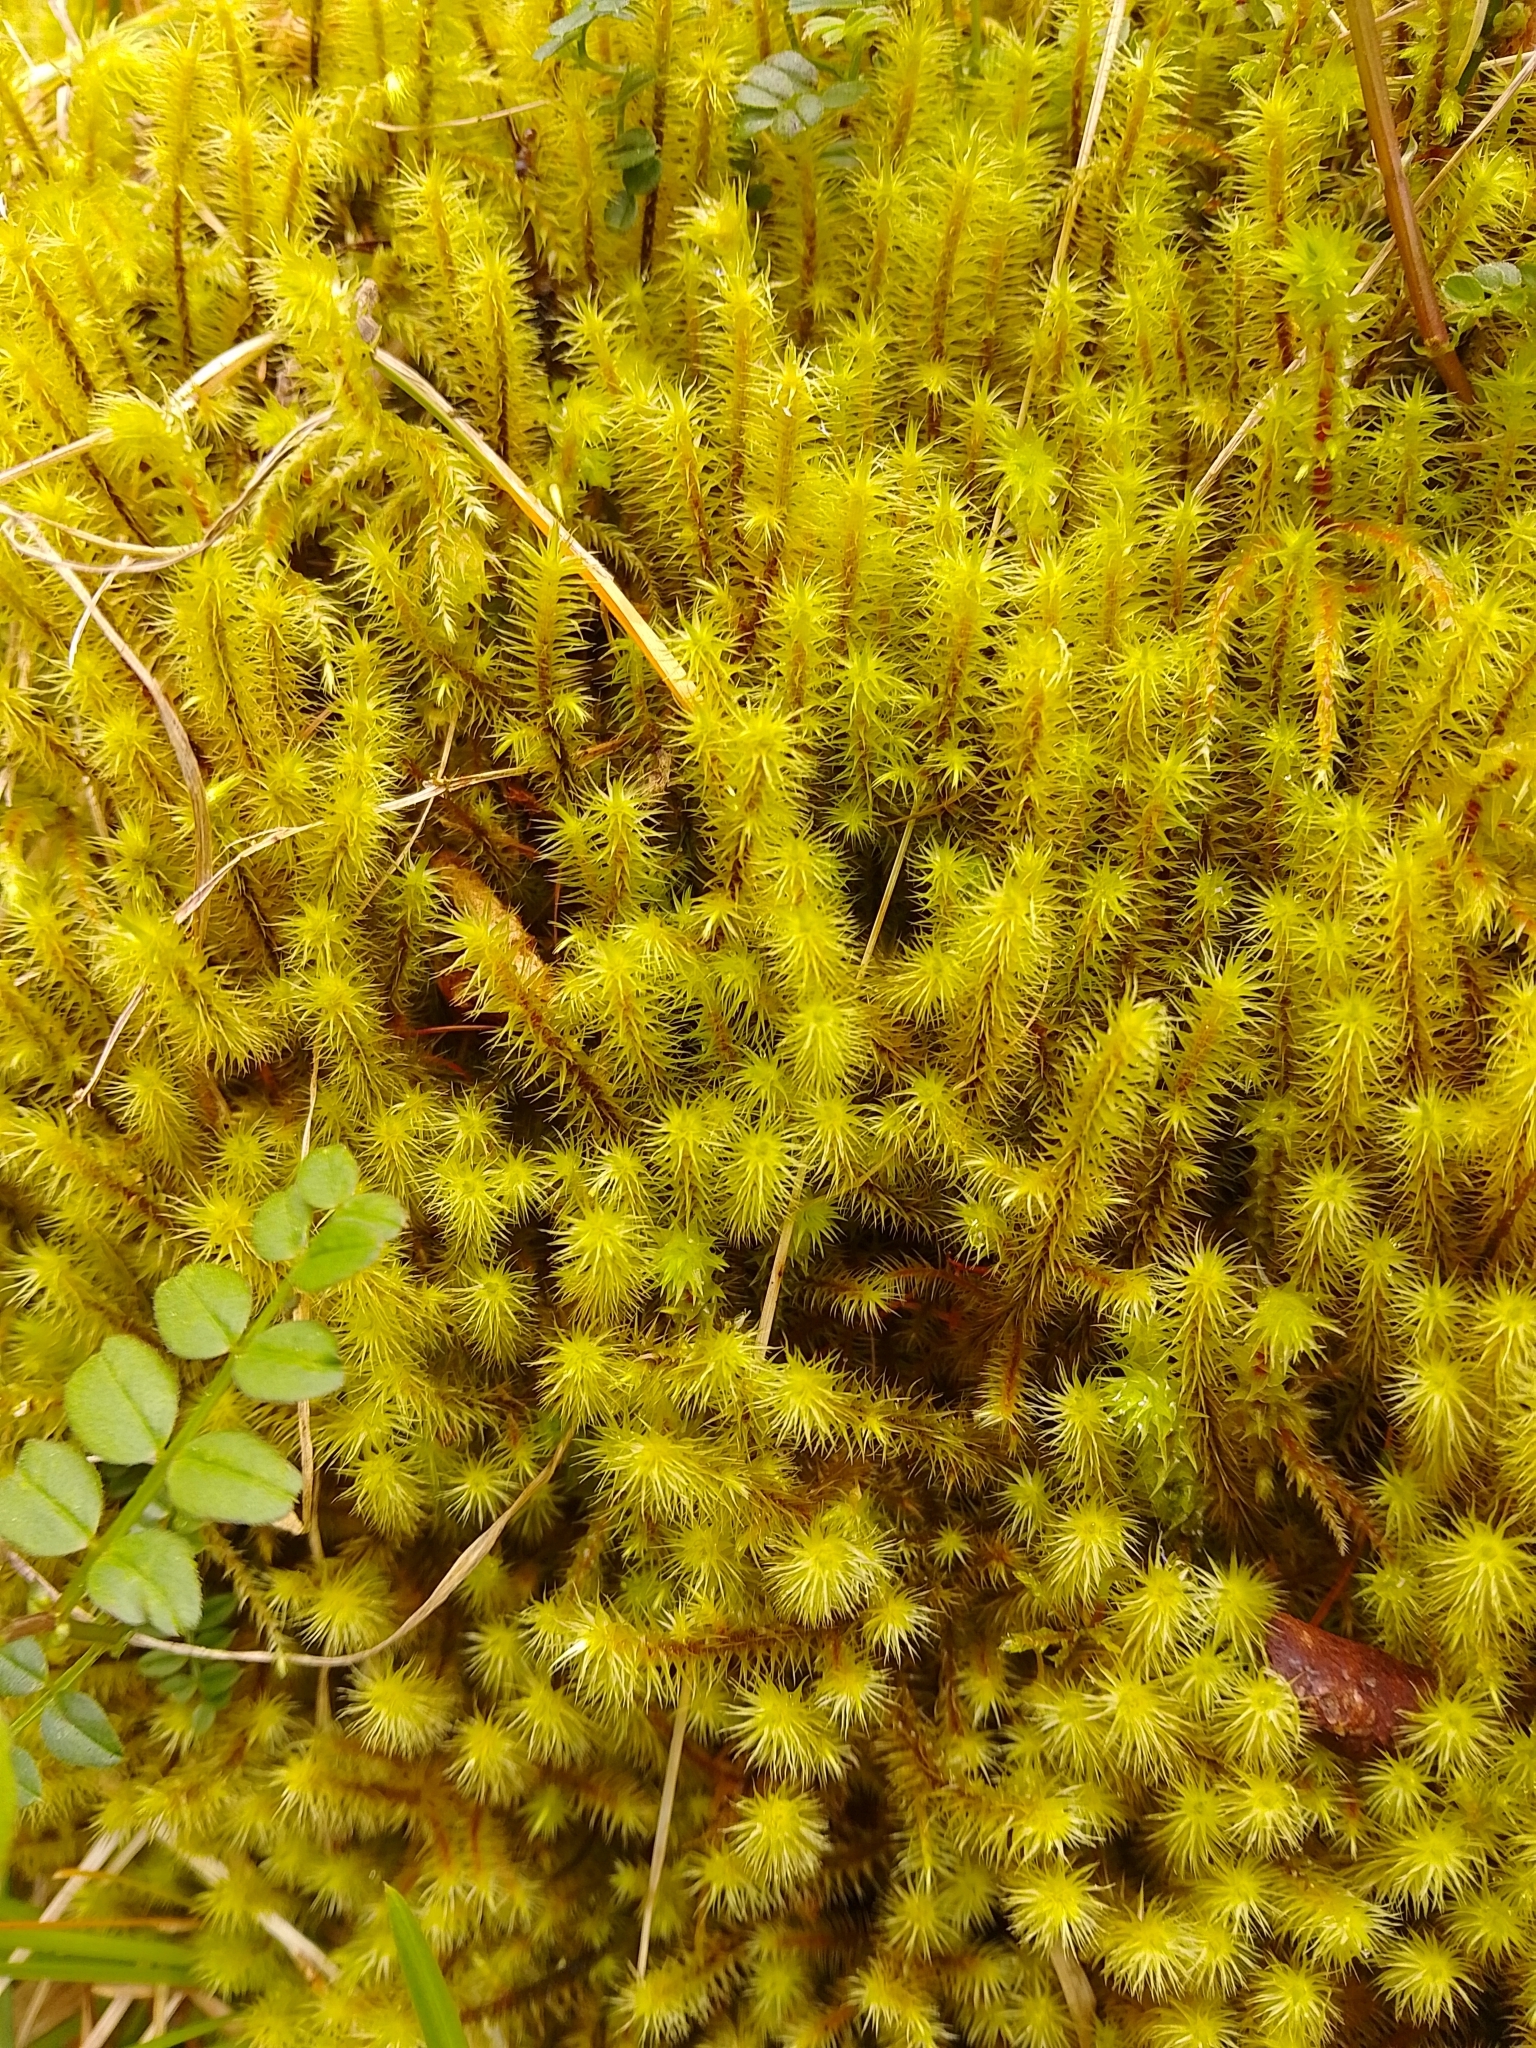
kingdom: Plantae
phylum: Bryophyta
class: Bryopsida
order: Bartramiales
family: Bartramiaceae
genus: Breutelia
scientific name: Breutelia chrysocoma
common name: Bottle-brush moss
